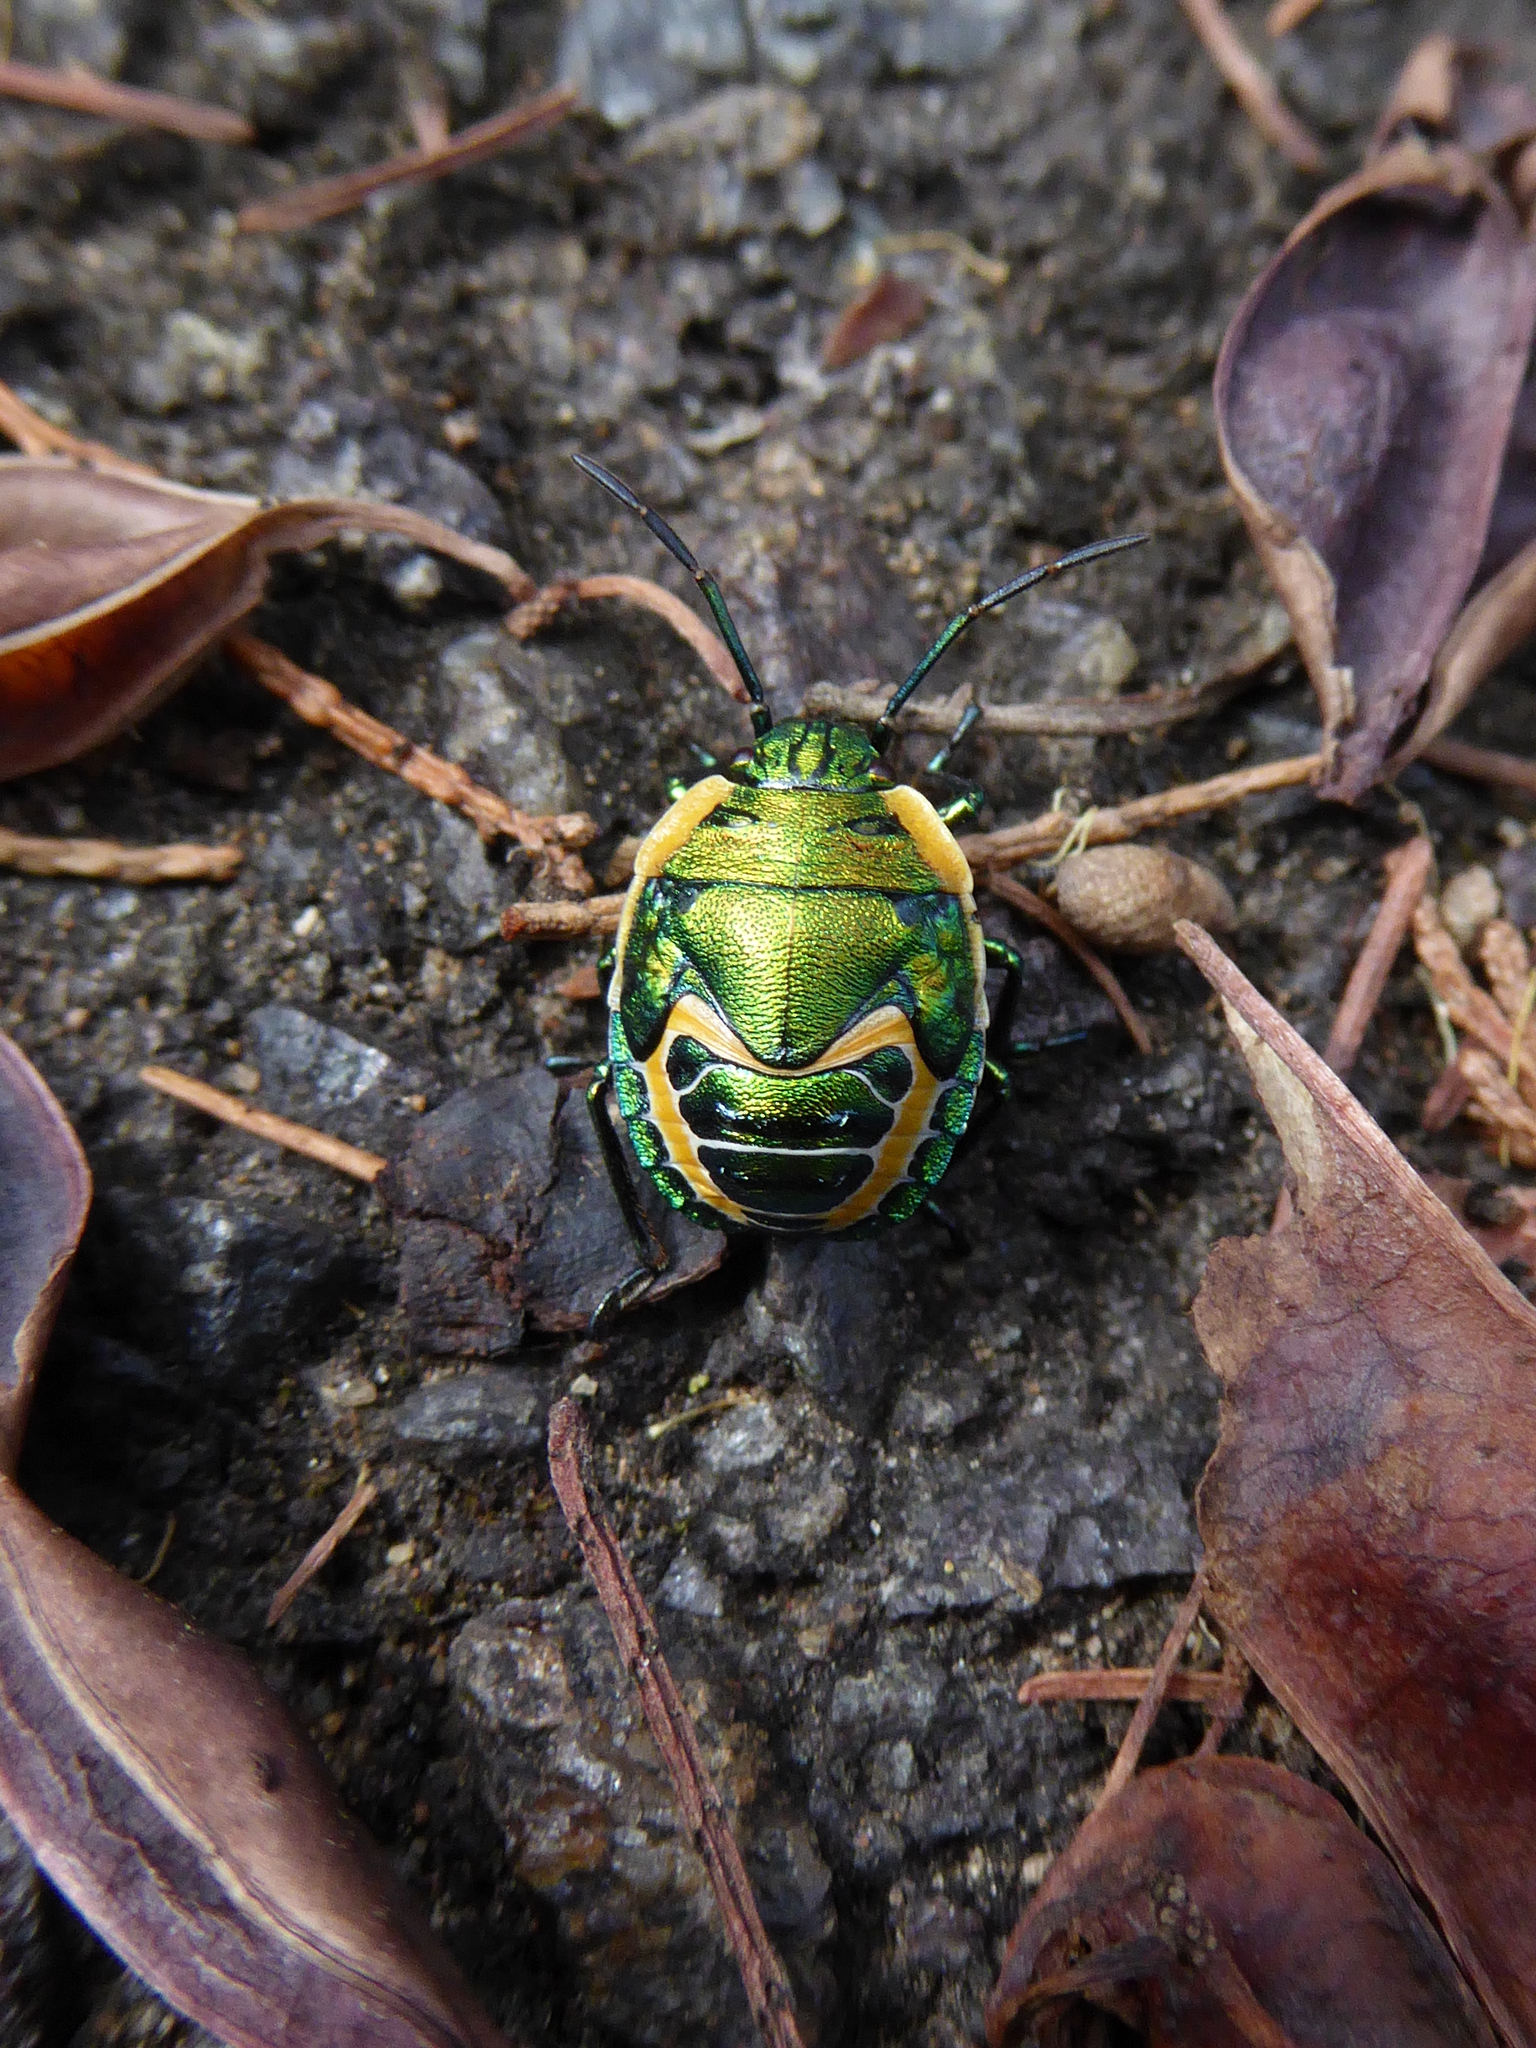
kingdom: Animalia
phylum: Arthropoda
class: Insecta
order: Hemiptera
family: Scutelleridae
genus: Scutiphora
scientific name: Scutiphora pedicellata
